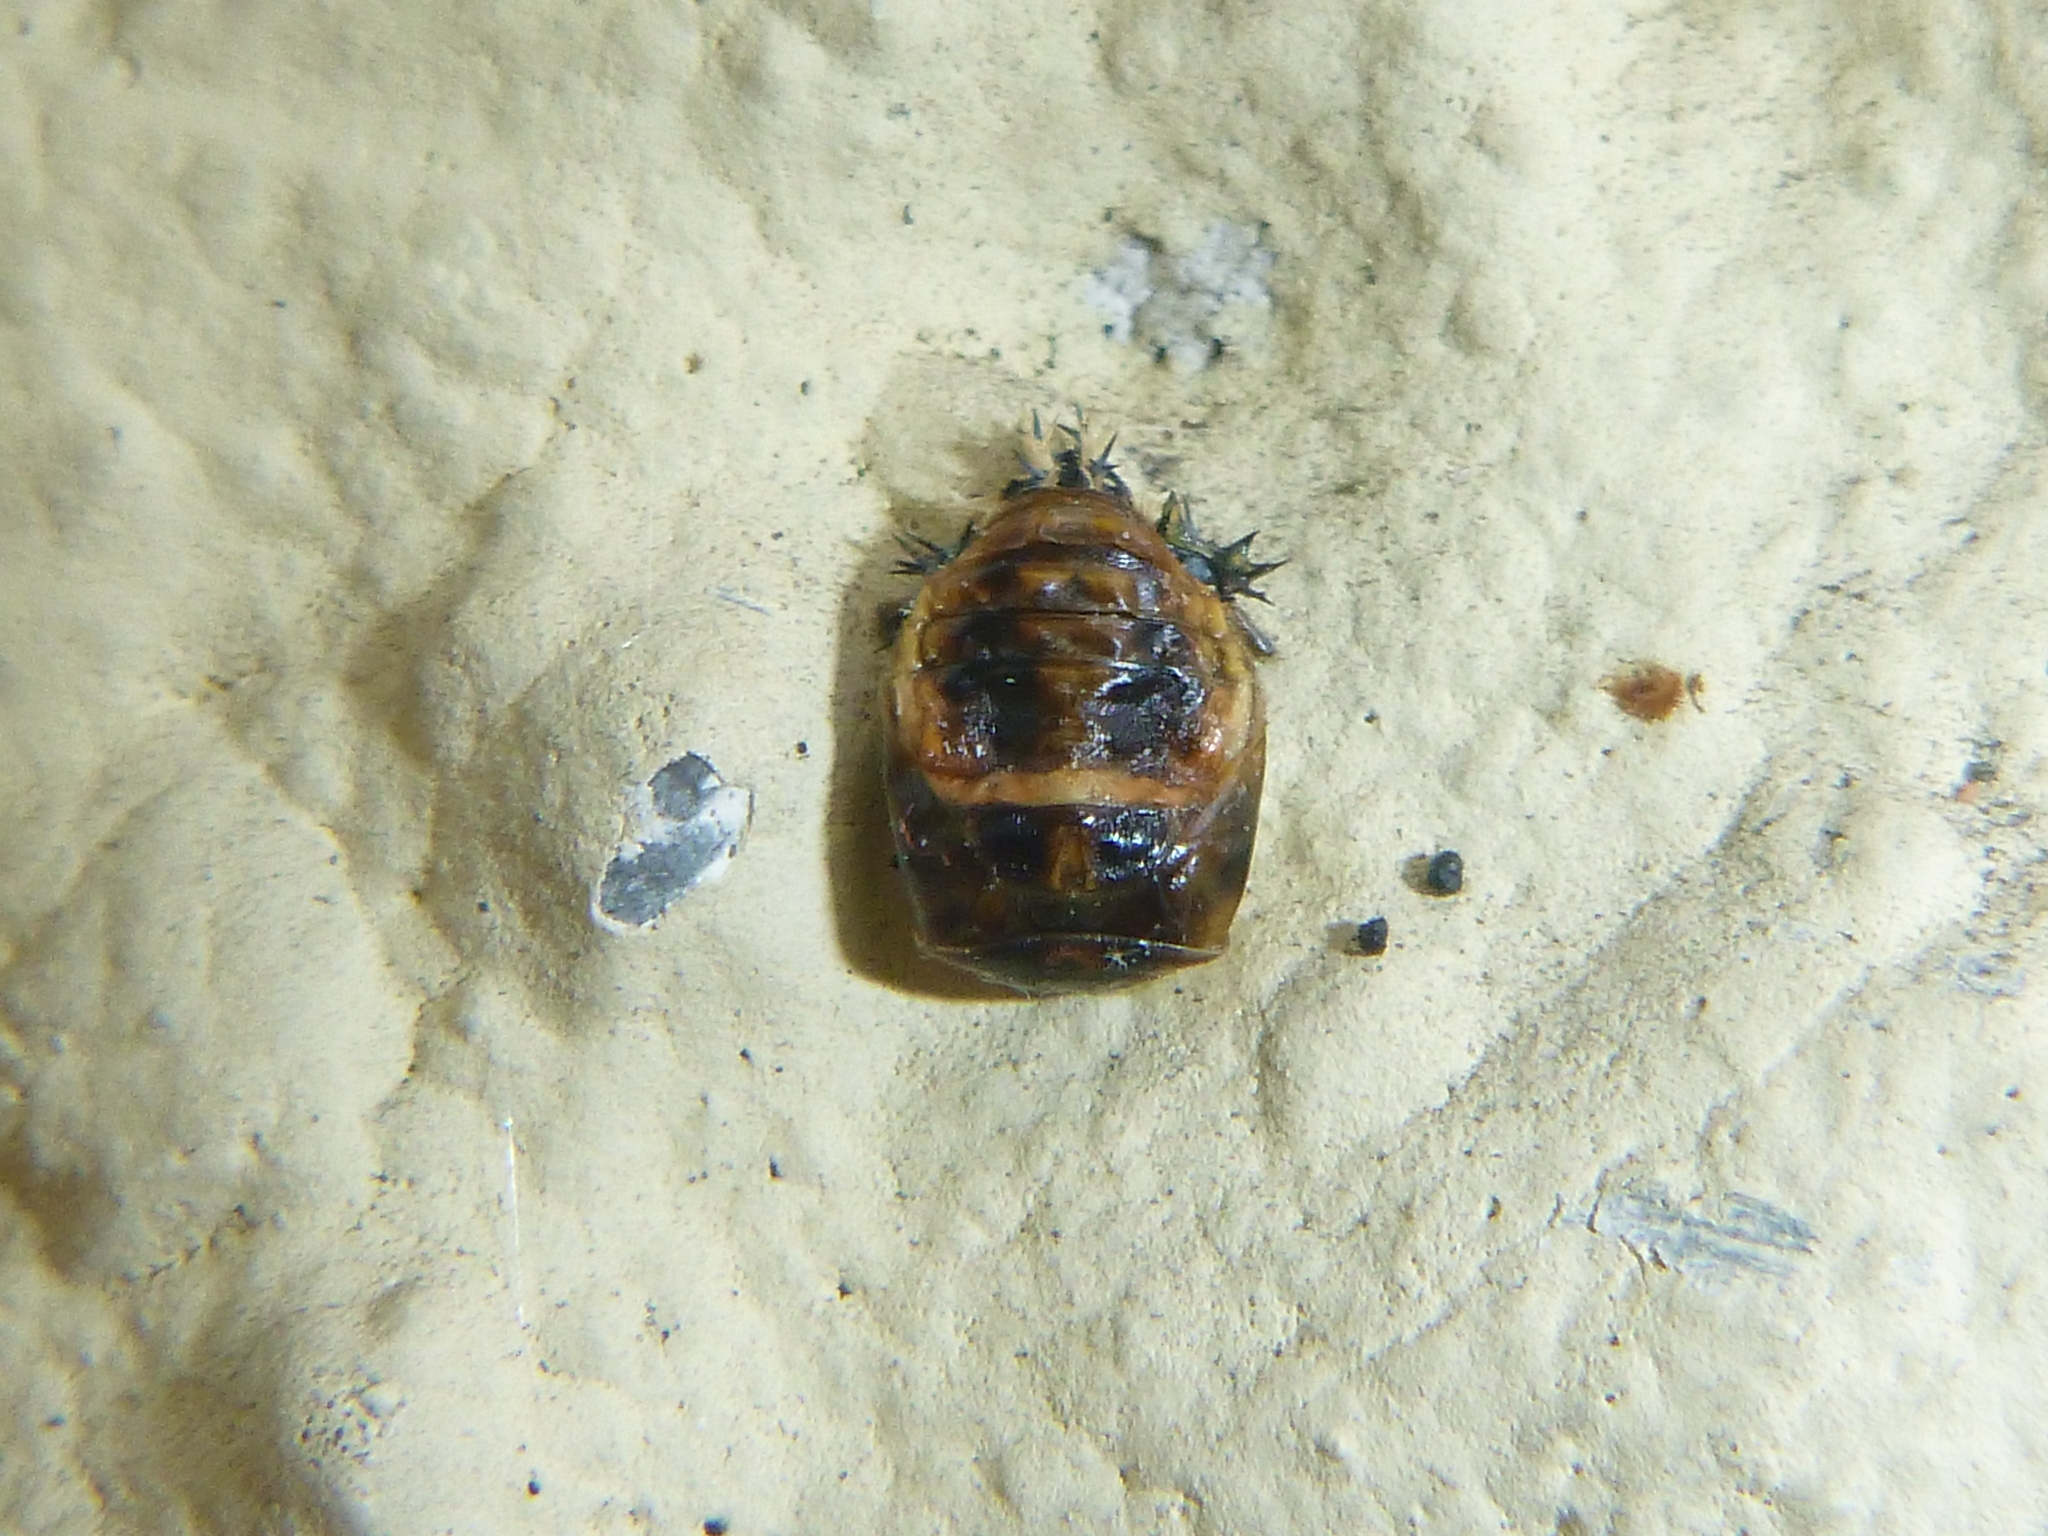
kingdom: Animalia
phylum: Arthropoda
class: Insecta
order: Coleoptera
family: Coccinellidae
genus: Harmonia
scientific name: Harmonia axyridis
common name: Harlequin ladybird
